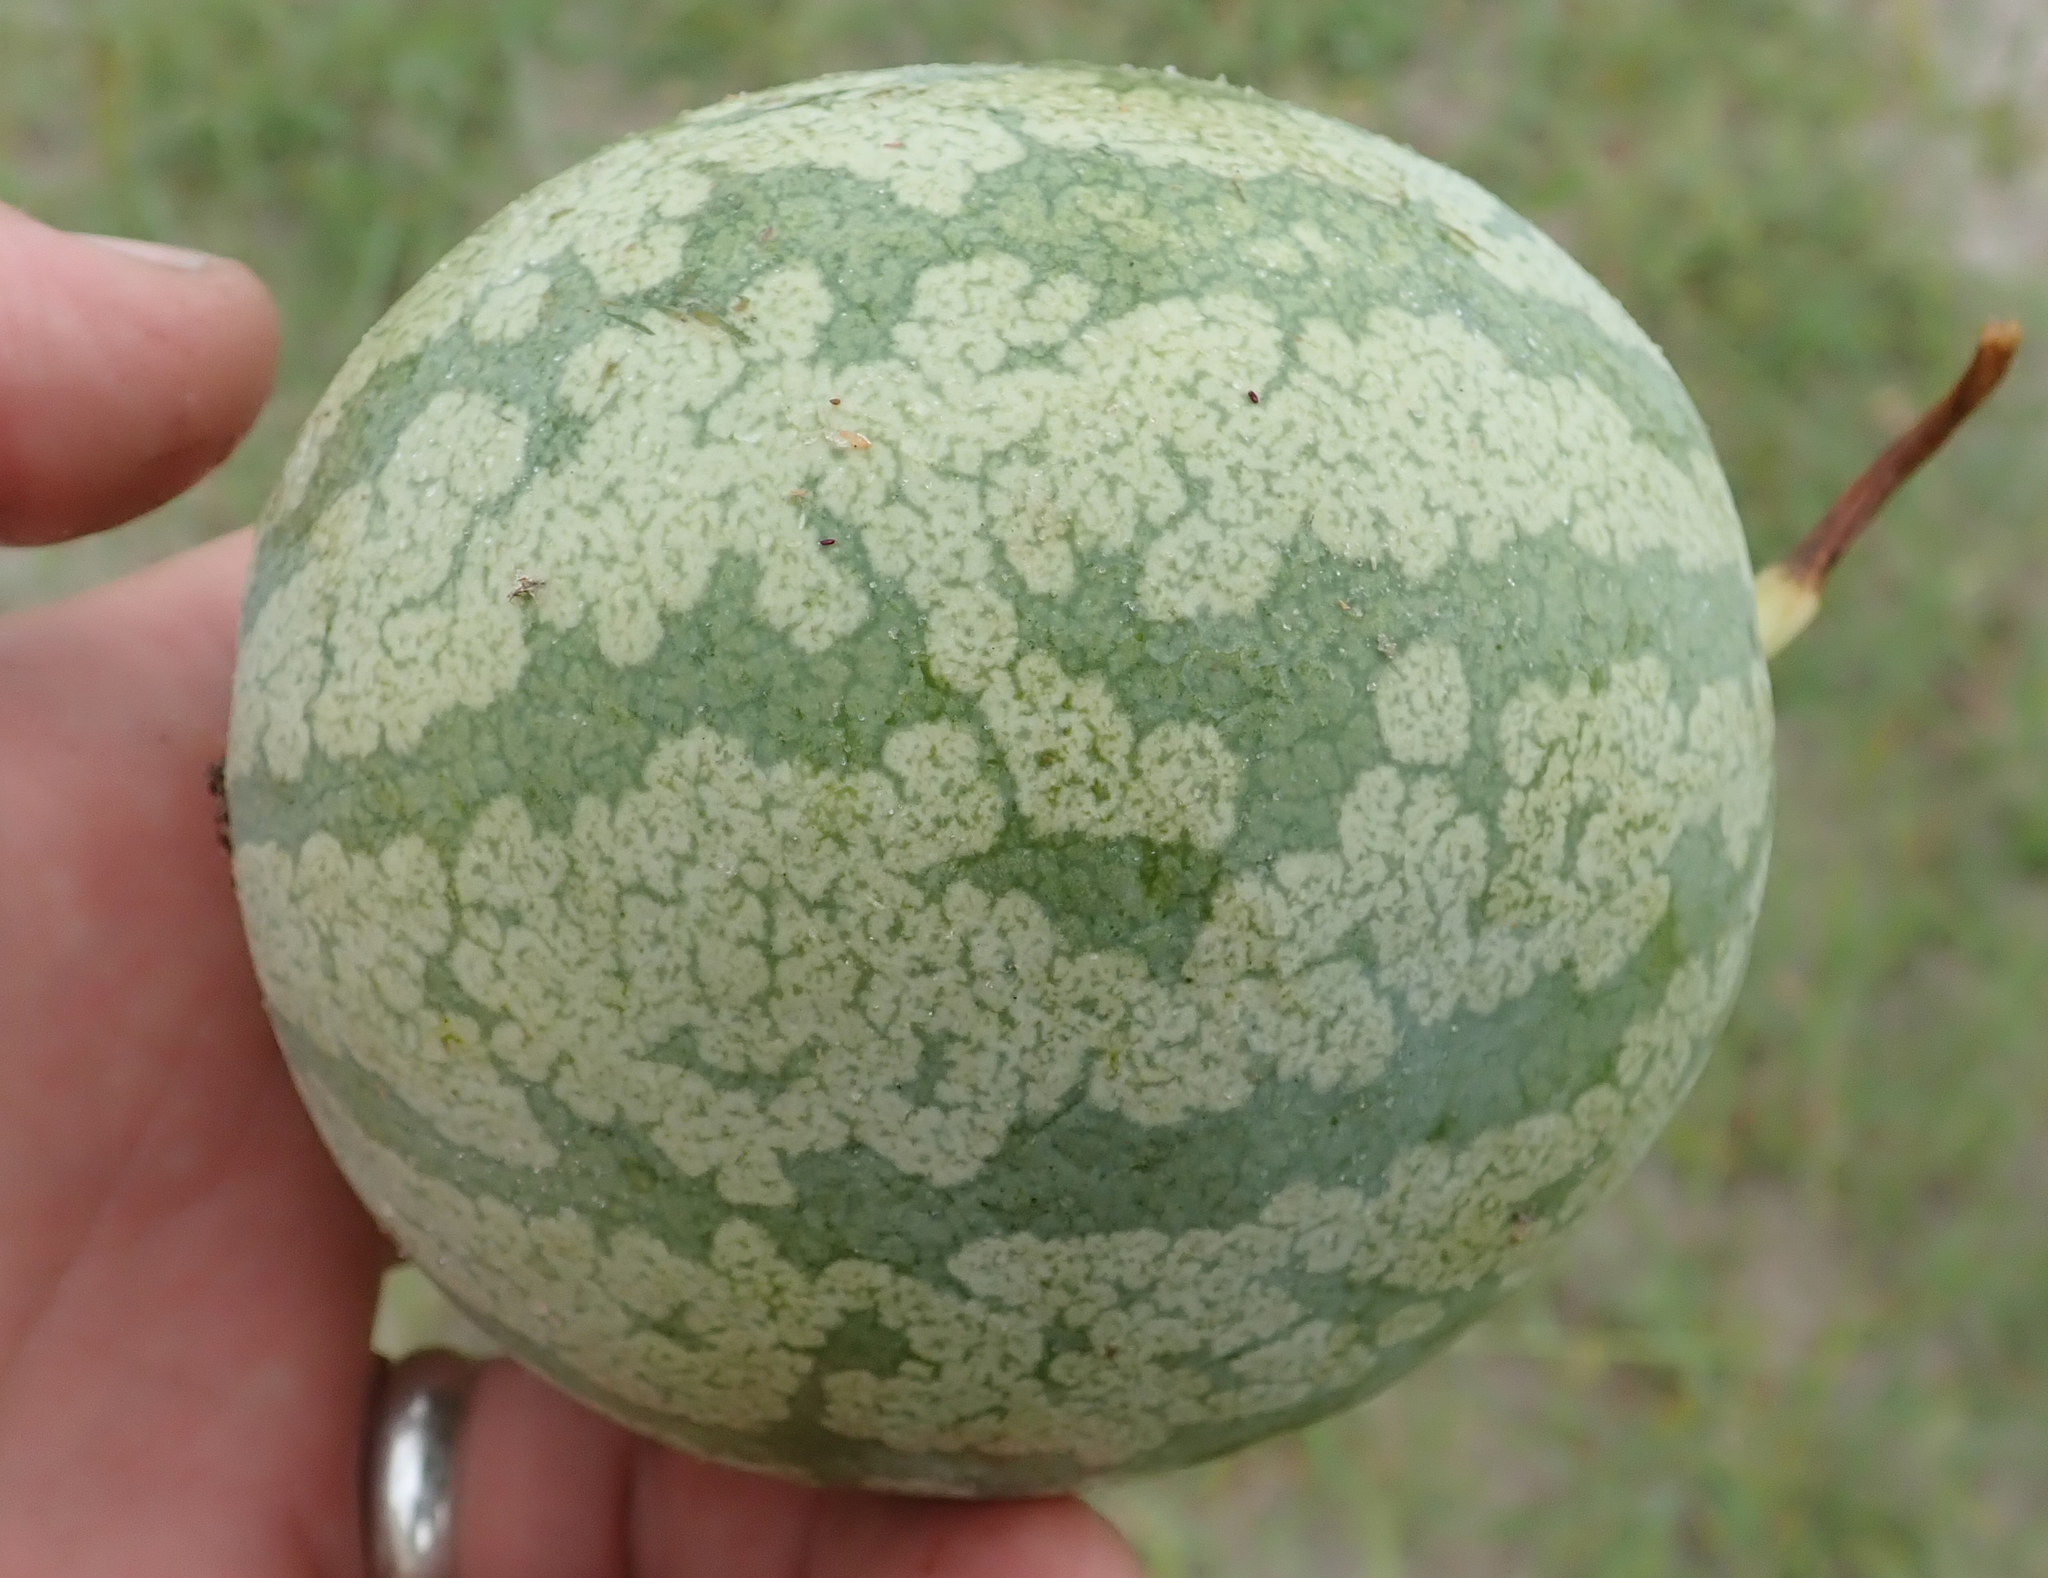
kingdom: Plantae
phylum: Tracheophyta
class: Magnoliopsida
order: Cucurbitales
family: Cucurbitaceae
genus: Citrullus
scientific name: Citrullus amarus
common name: Fodder-melon
